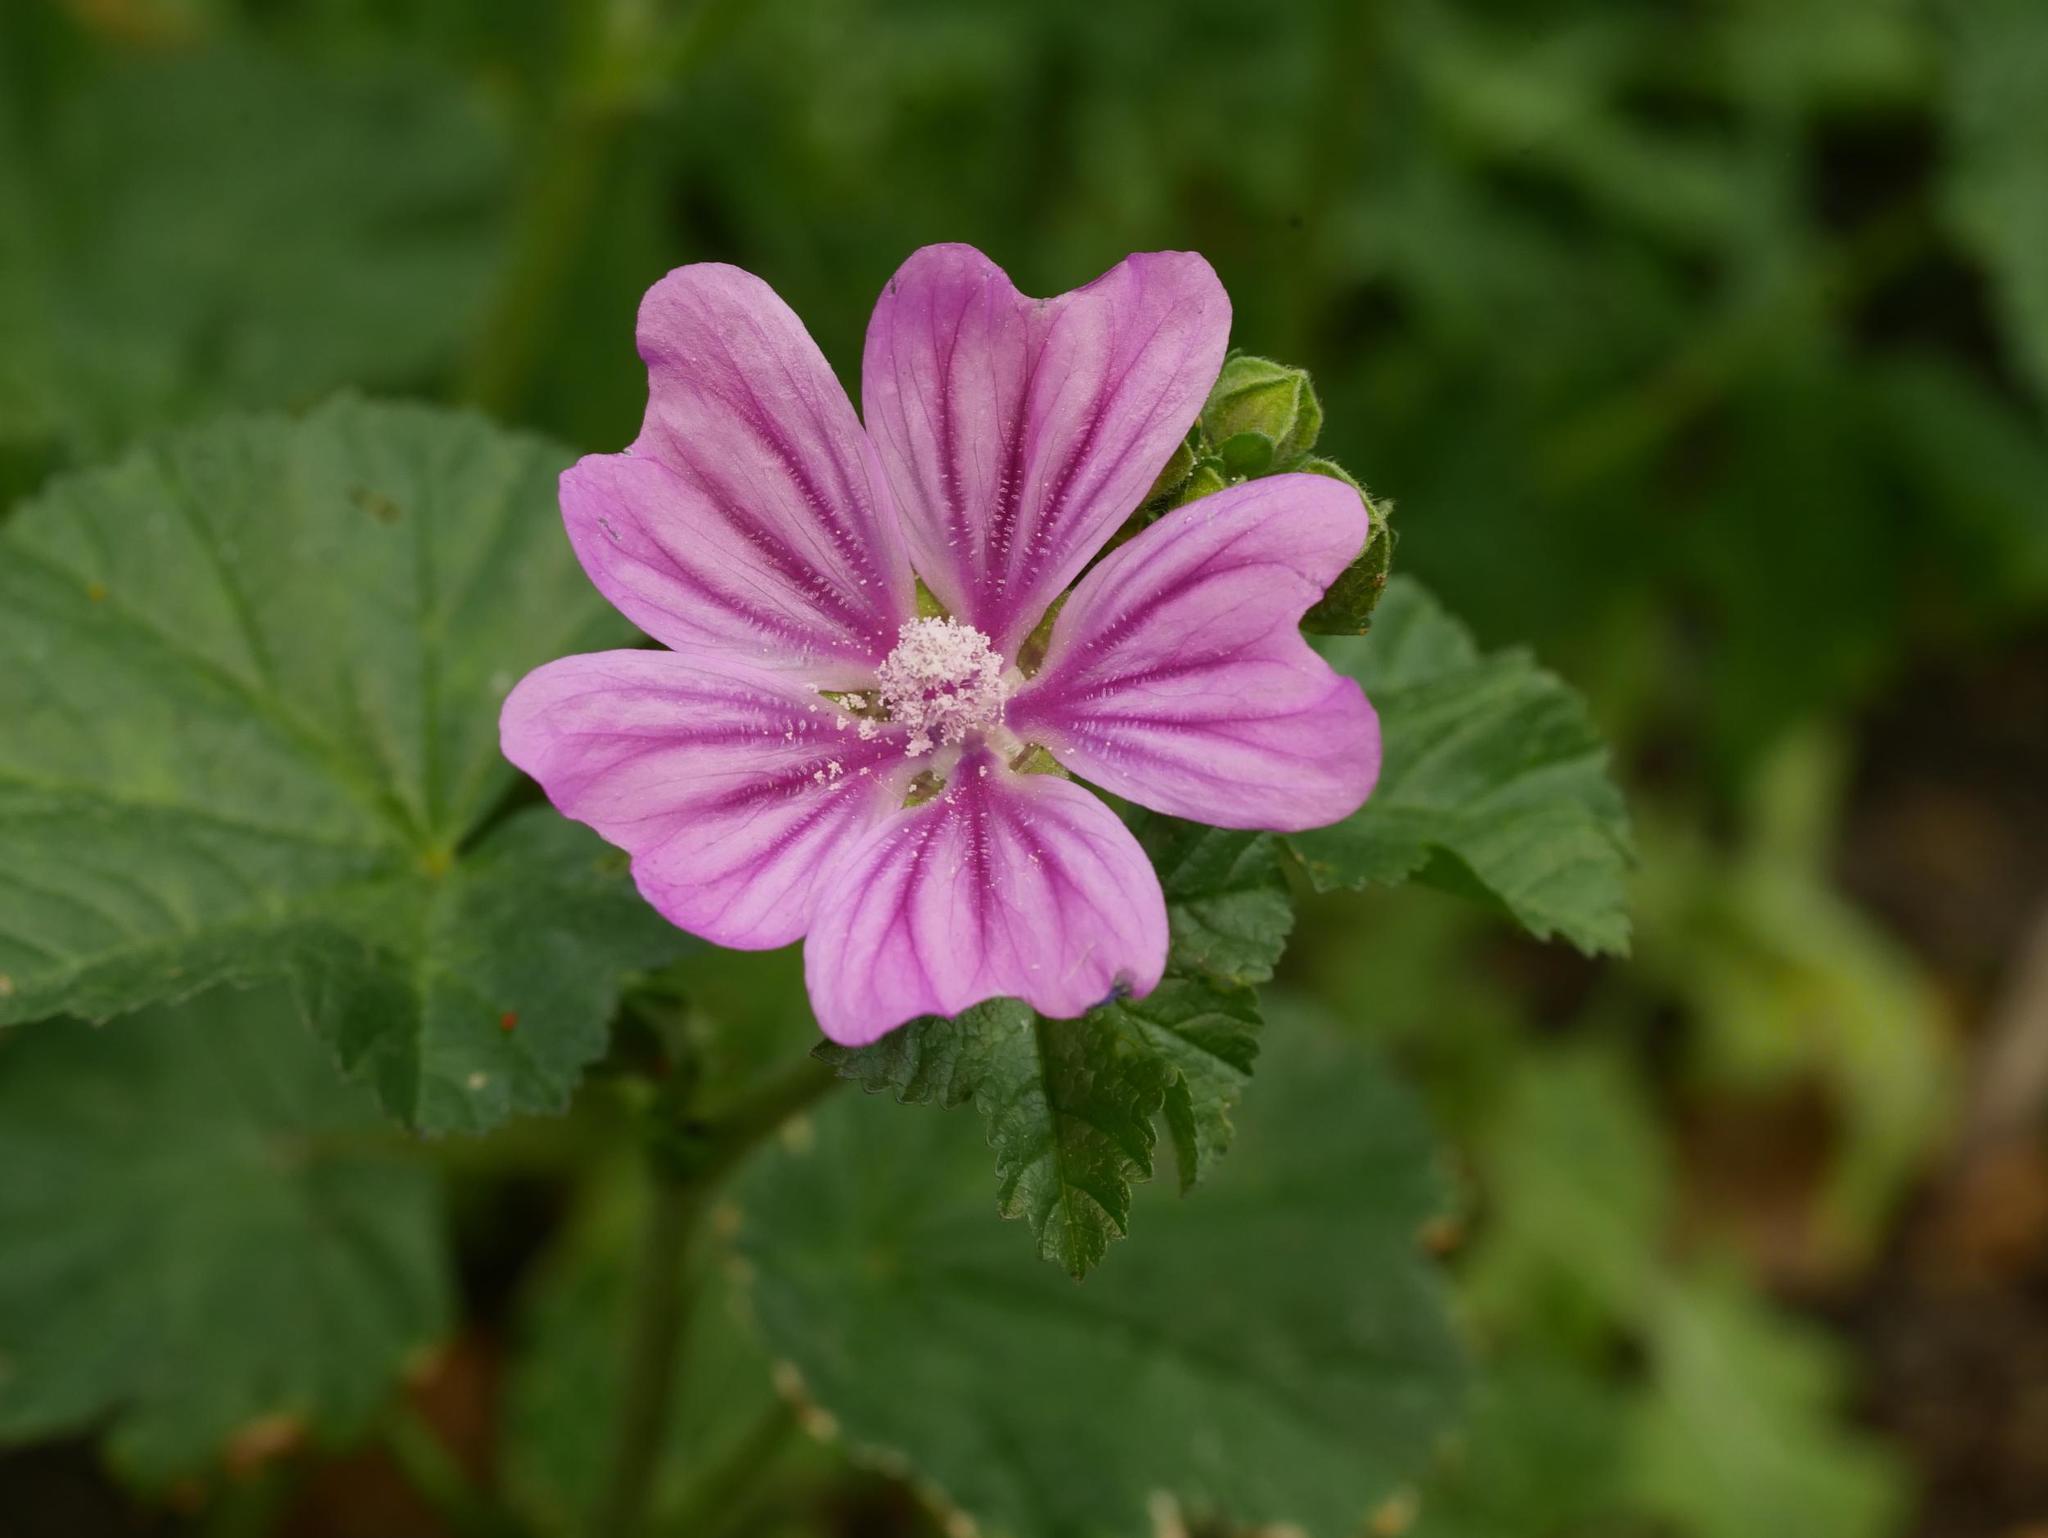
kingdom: Plantae
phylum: Tracheophyta
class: Magnoliopsida
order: Malvales
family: Malvaceae
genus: Malva
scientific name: Malva sylvestris
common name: Common mallow
